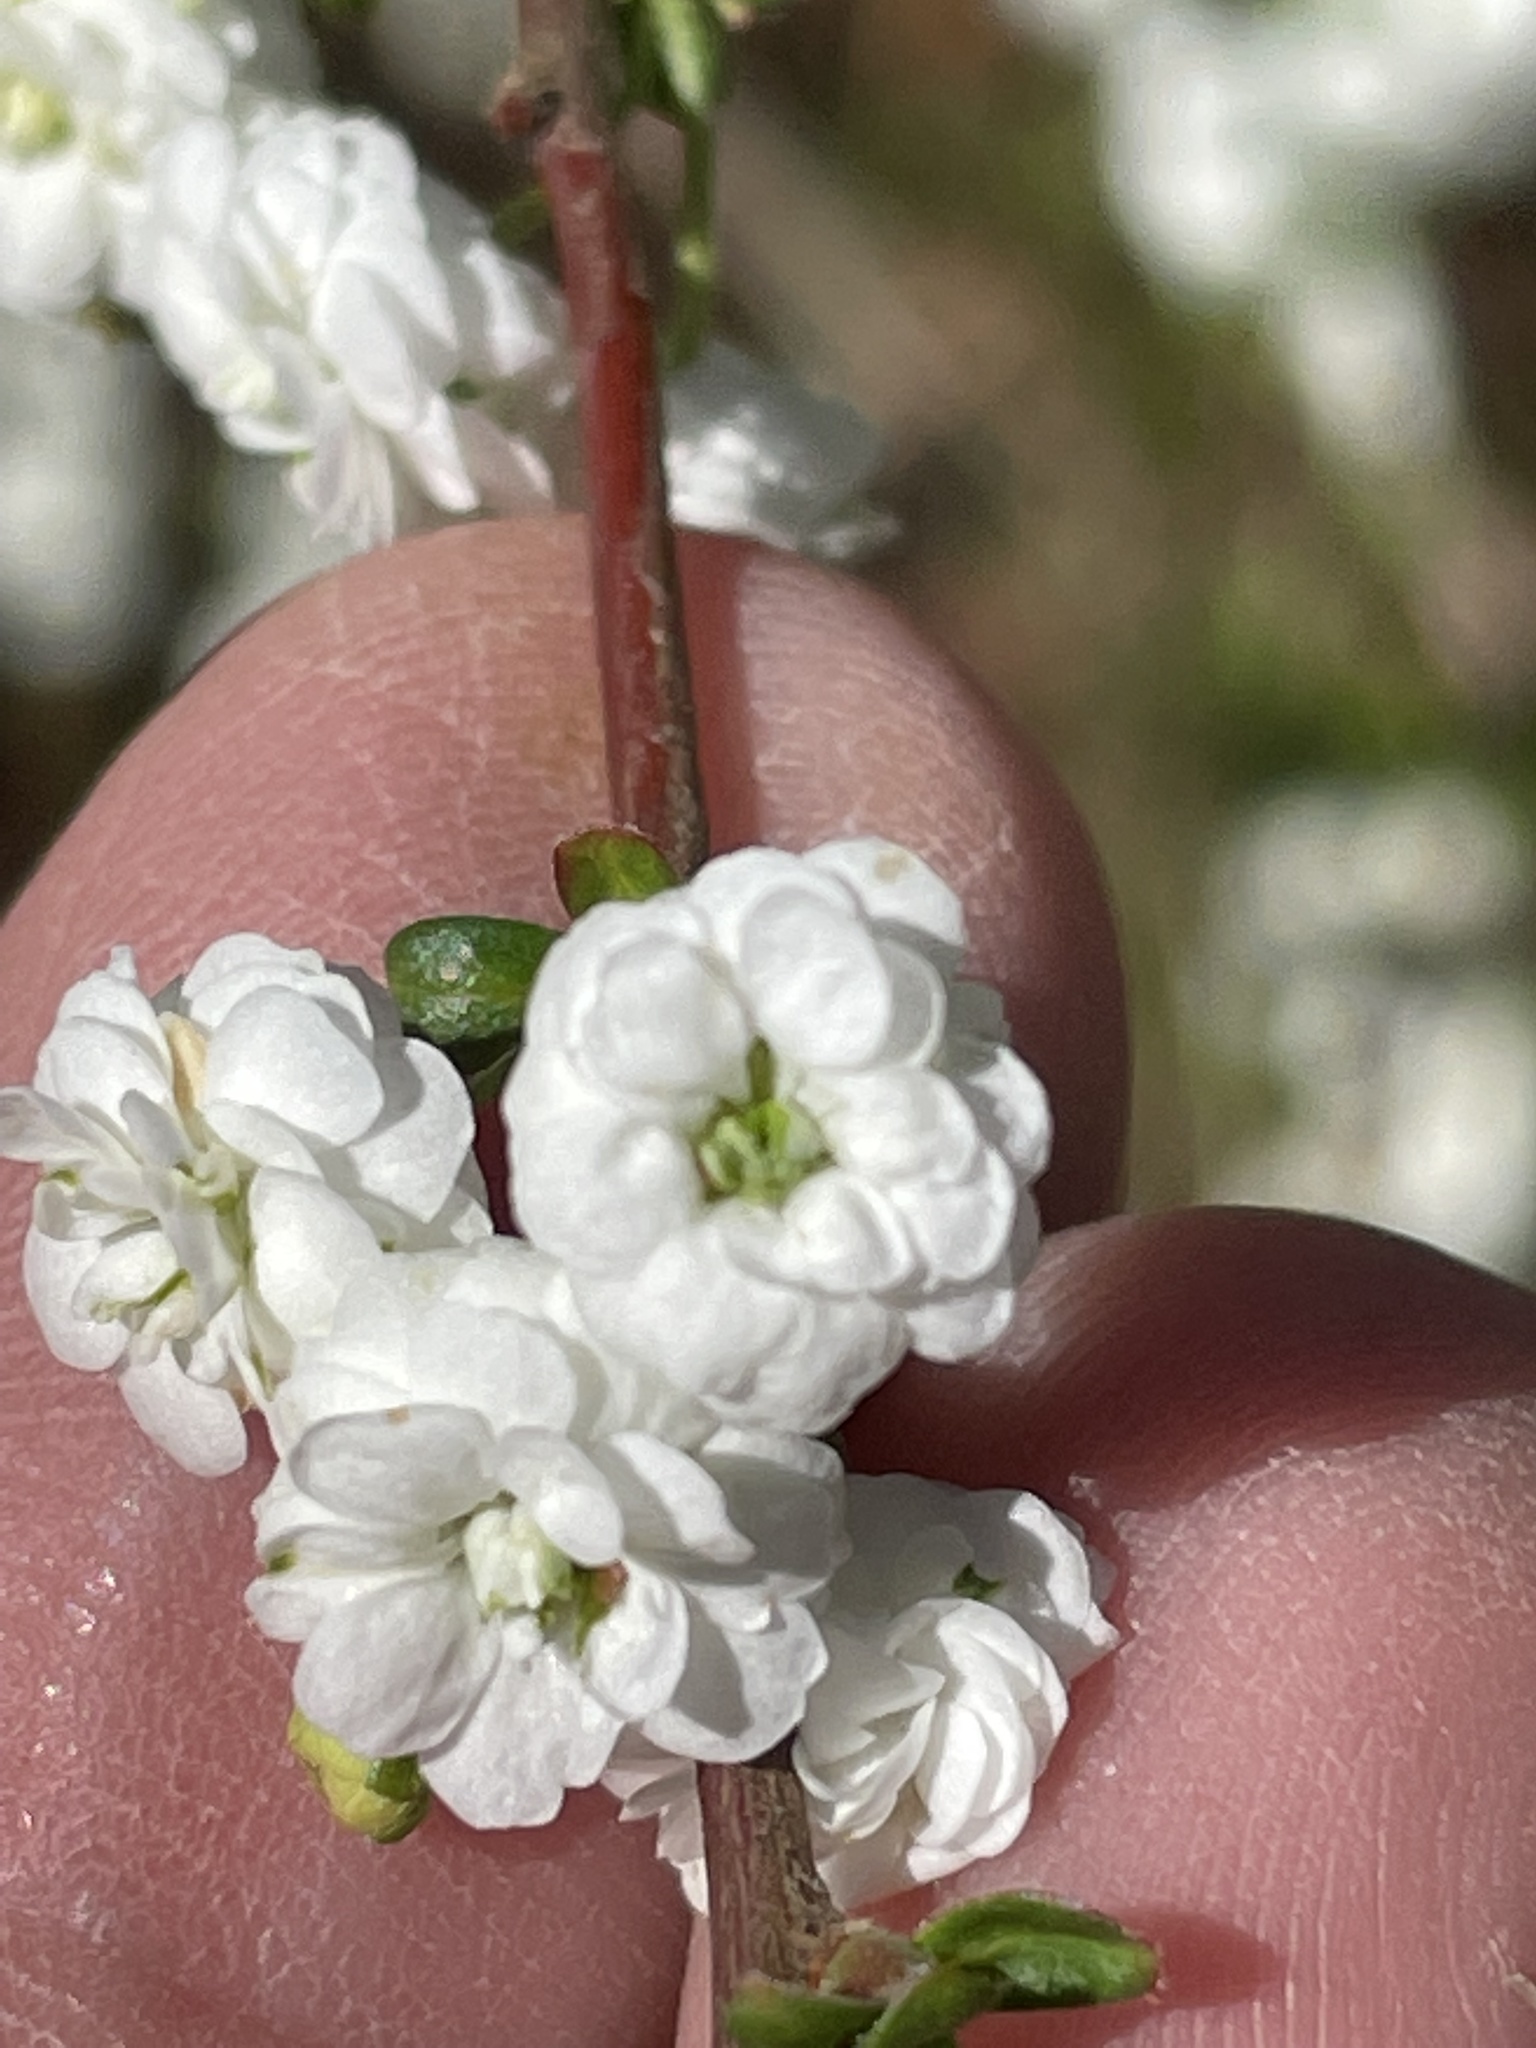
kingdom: Plantae
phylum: Tracheophyta
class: Magnoliopsida
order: Rosales
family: Rosaceae
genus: Spiraea
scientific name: Spiraea prunifolia
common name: Bridal-wreath spiraea
